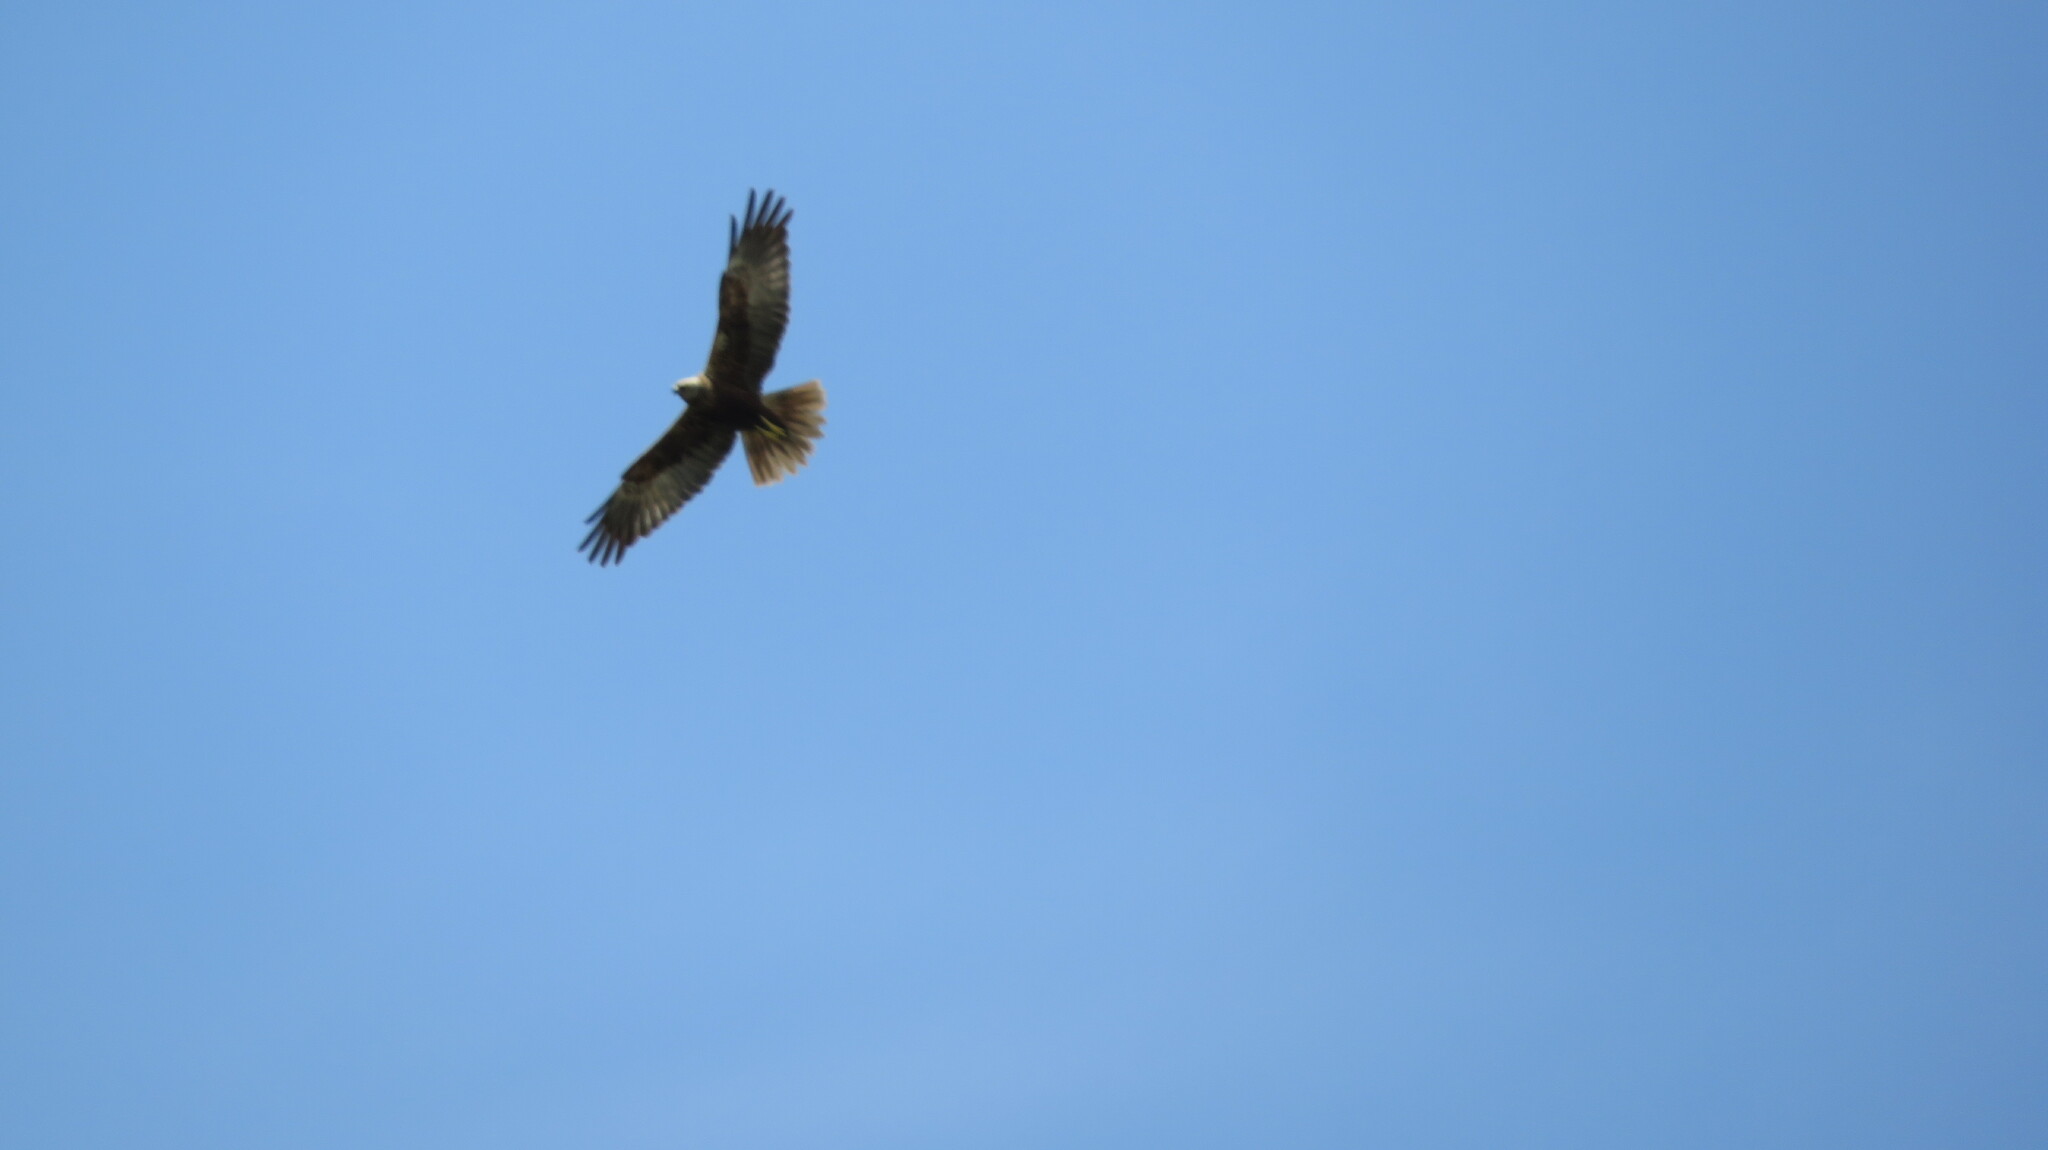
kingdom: Animalia
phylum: Chordata
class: Aves
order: Accipitriformes
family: Accipitridae
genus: Circus
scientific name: Circus aeruginosus
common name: Western marsh harrier
